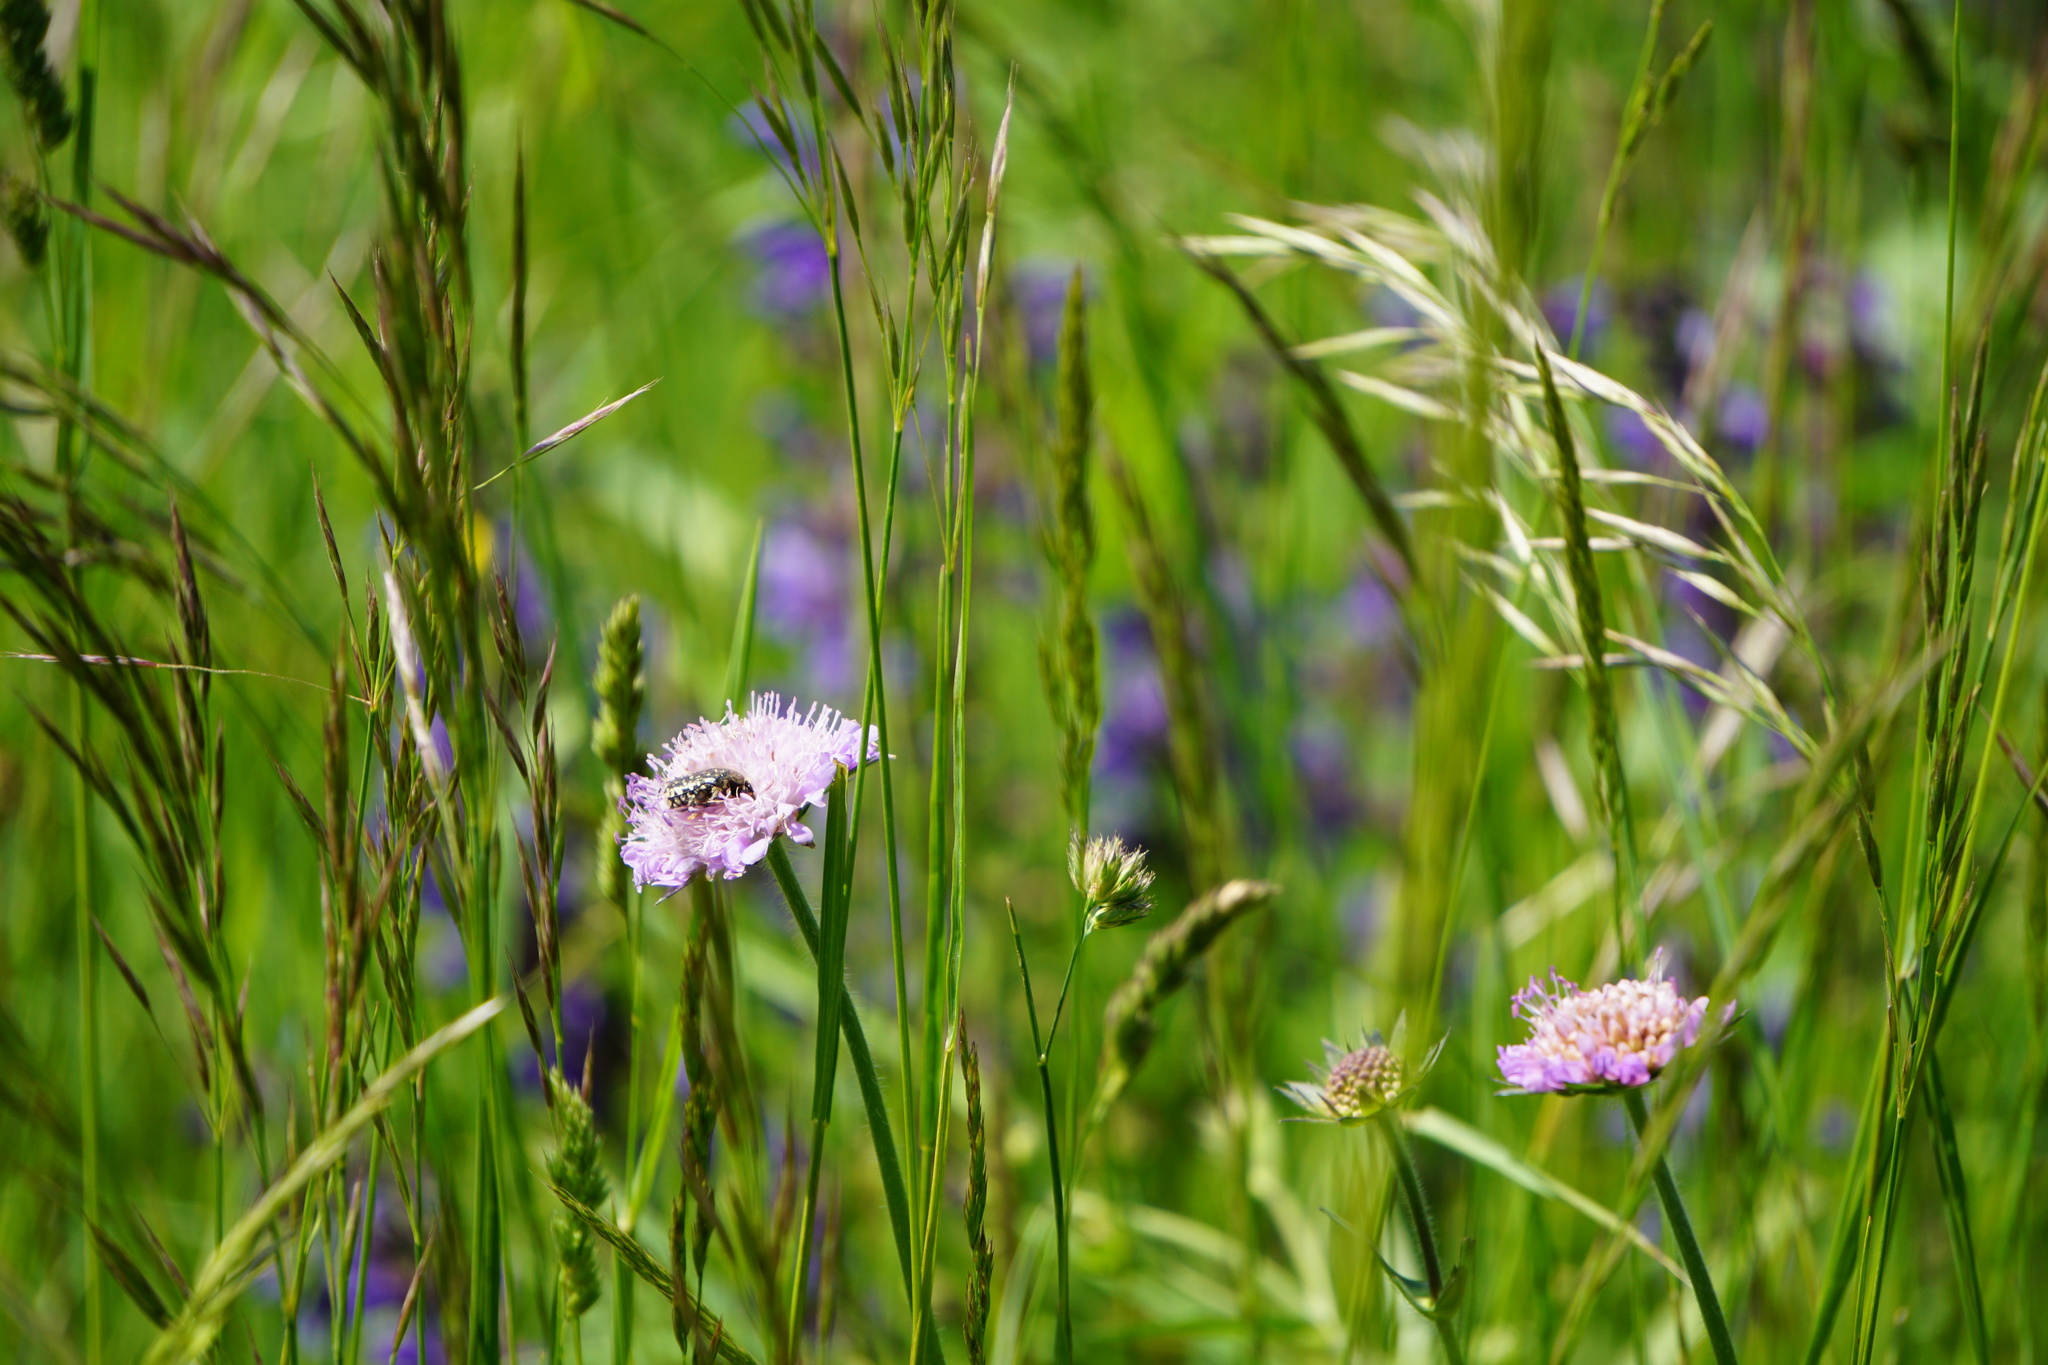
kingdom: Animalia
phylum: Arthropoda
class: Insecta
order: Coleoptera
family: Scarabaeidae
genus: Oxythyrea
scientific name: Oxythyrea funesta
